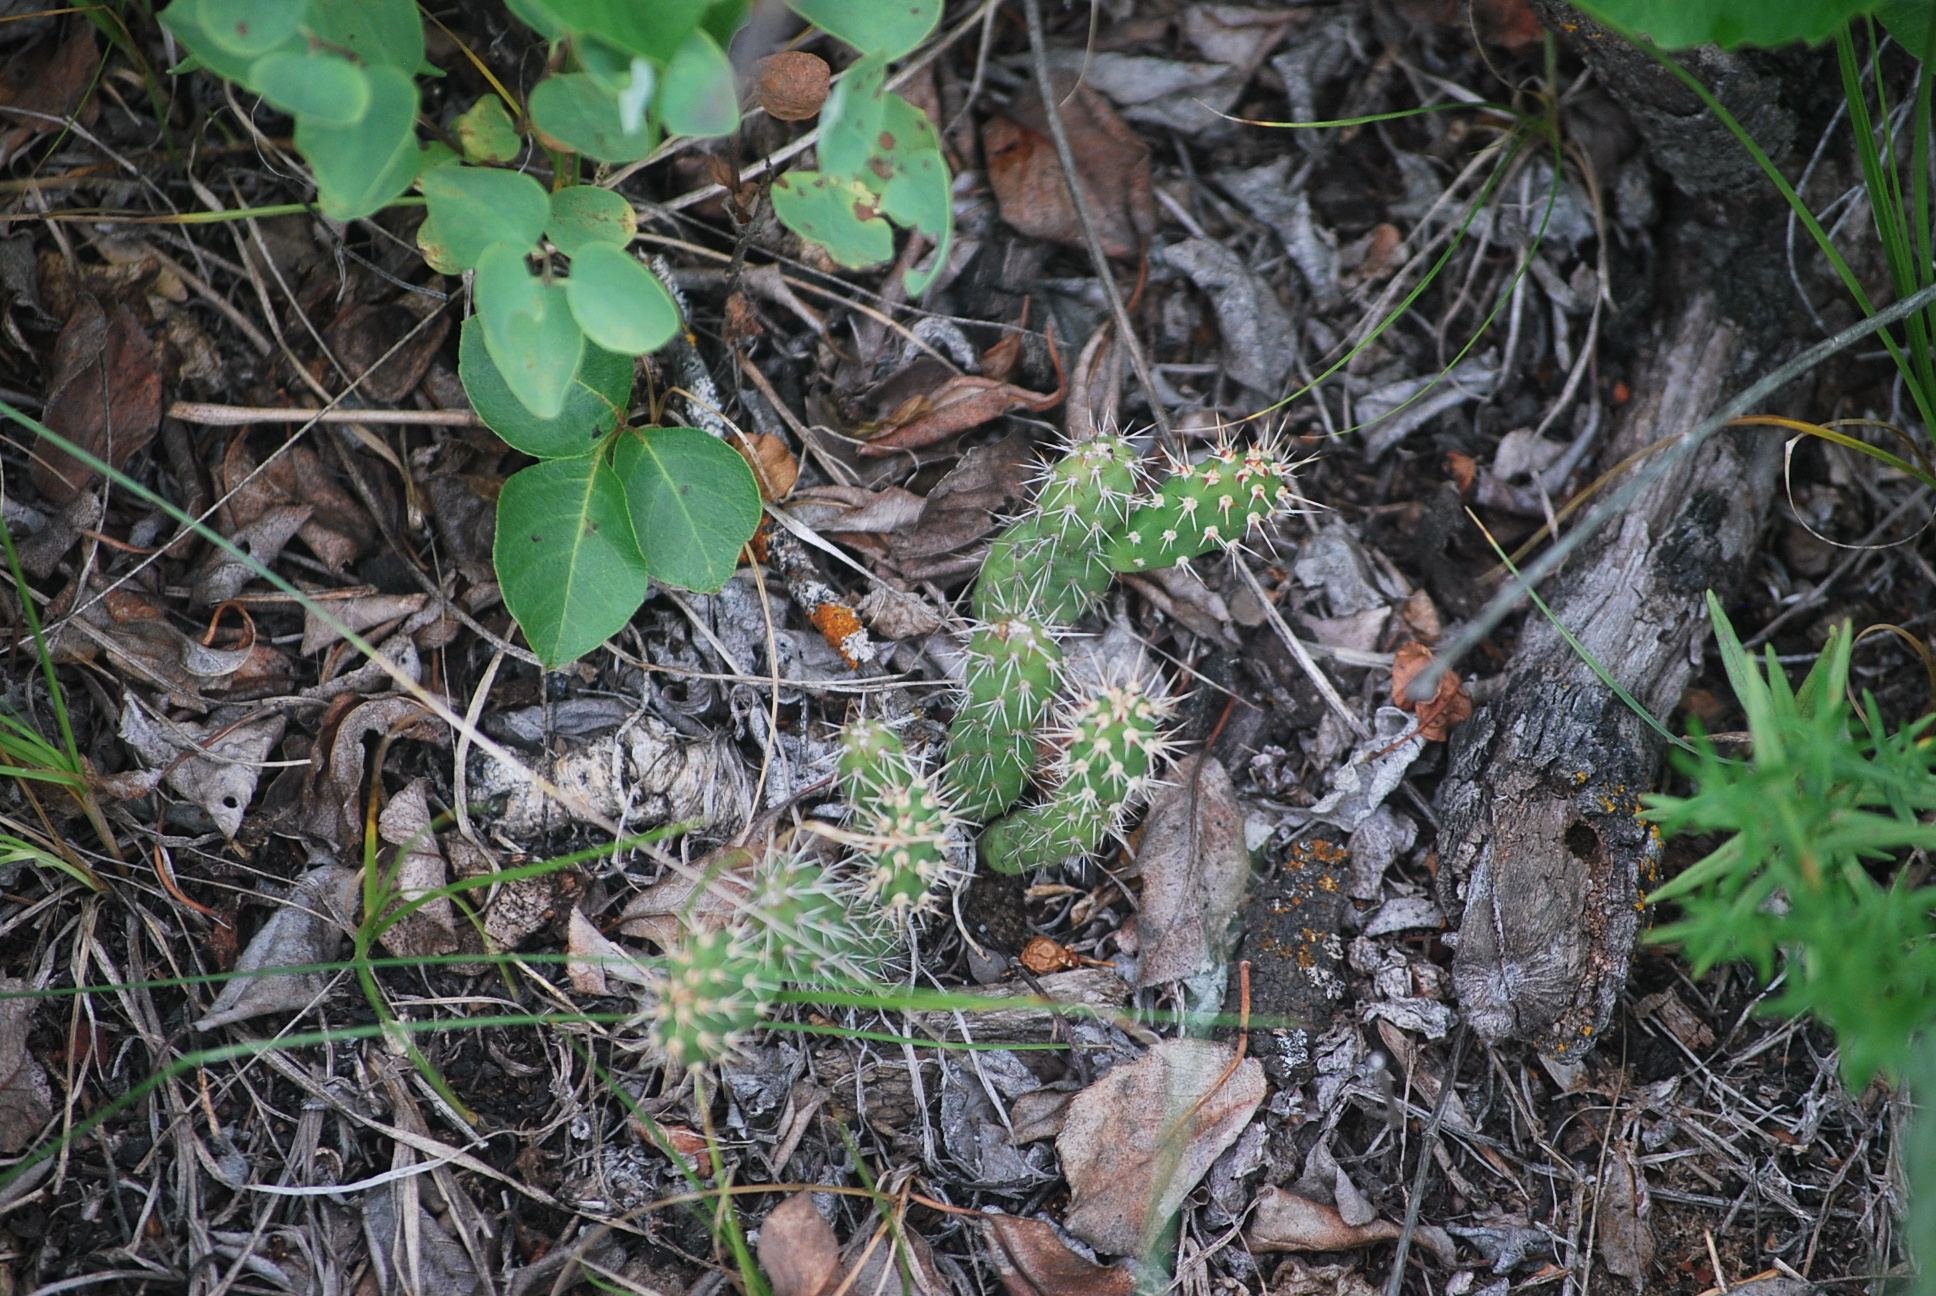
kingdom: Plantae
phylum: Tracheophyta
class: Magnoliopsida
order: Caryophyllales
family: Cactaceae
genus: Opuntia
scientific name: Opuntia fragilis
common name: Brittle cactus
